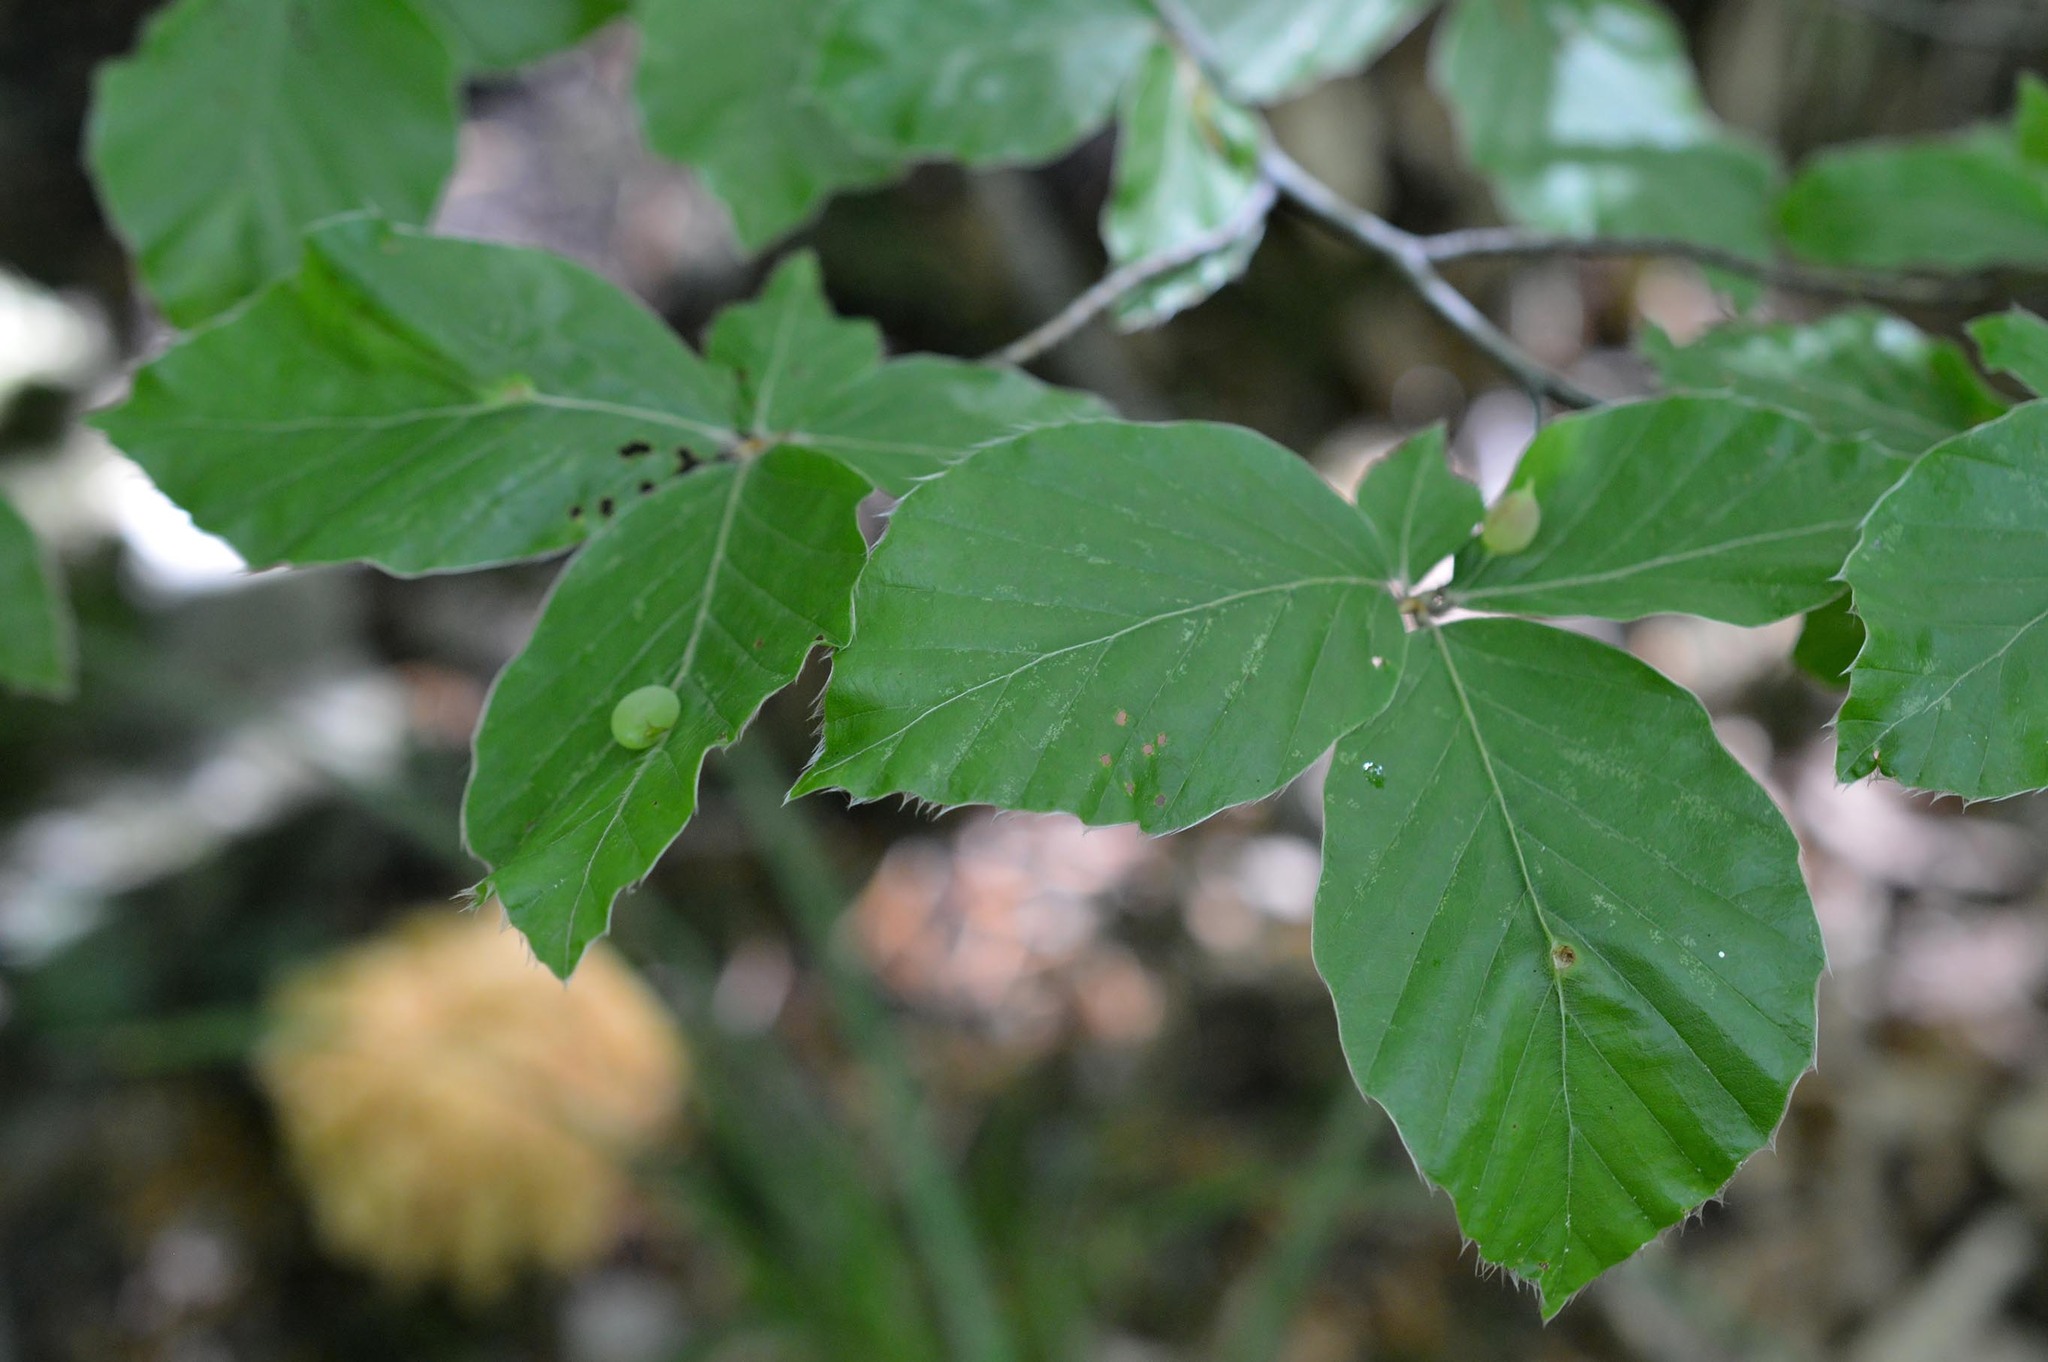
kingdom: Animalia
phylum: Arthropoda
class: Insecta
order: Diptera
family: Cecidomyiidae
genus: Mikiola
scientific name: Mikiola fagi
